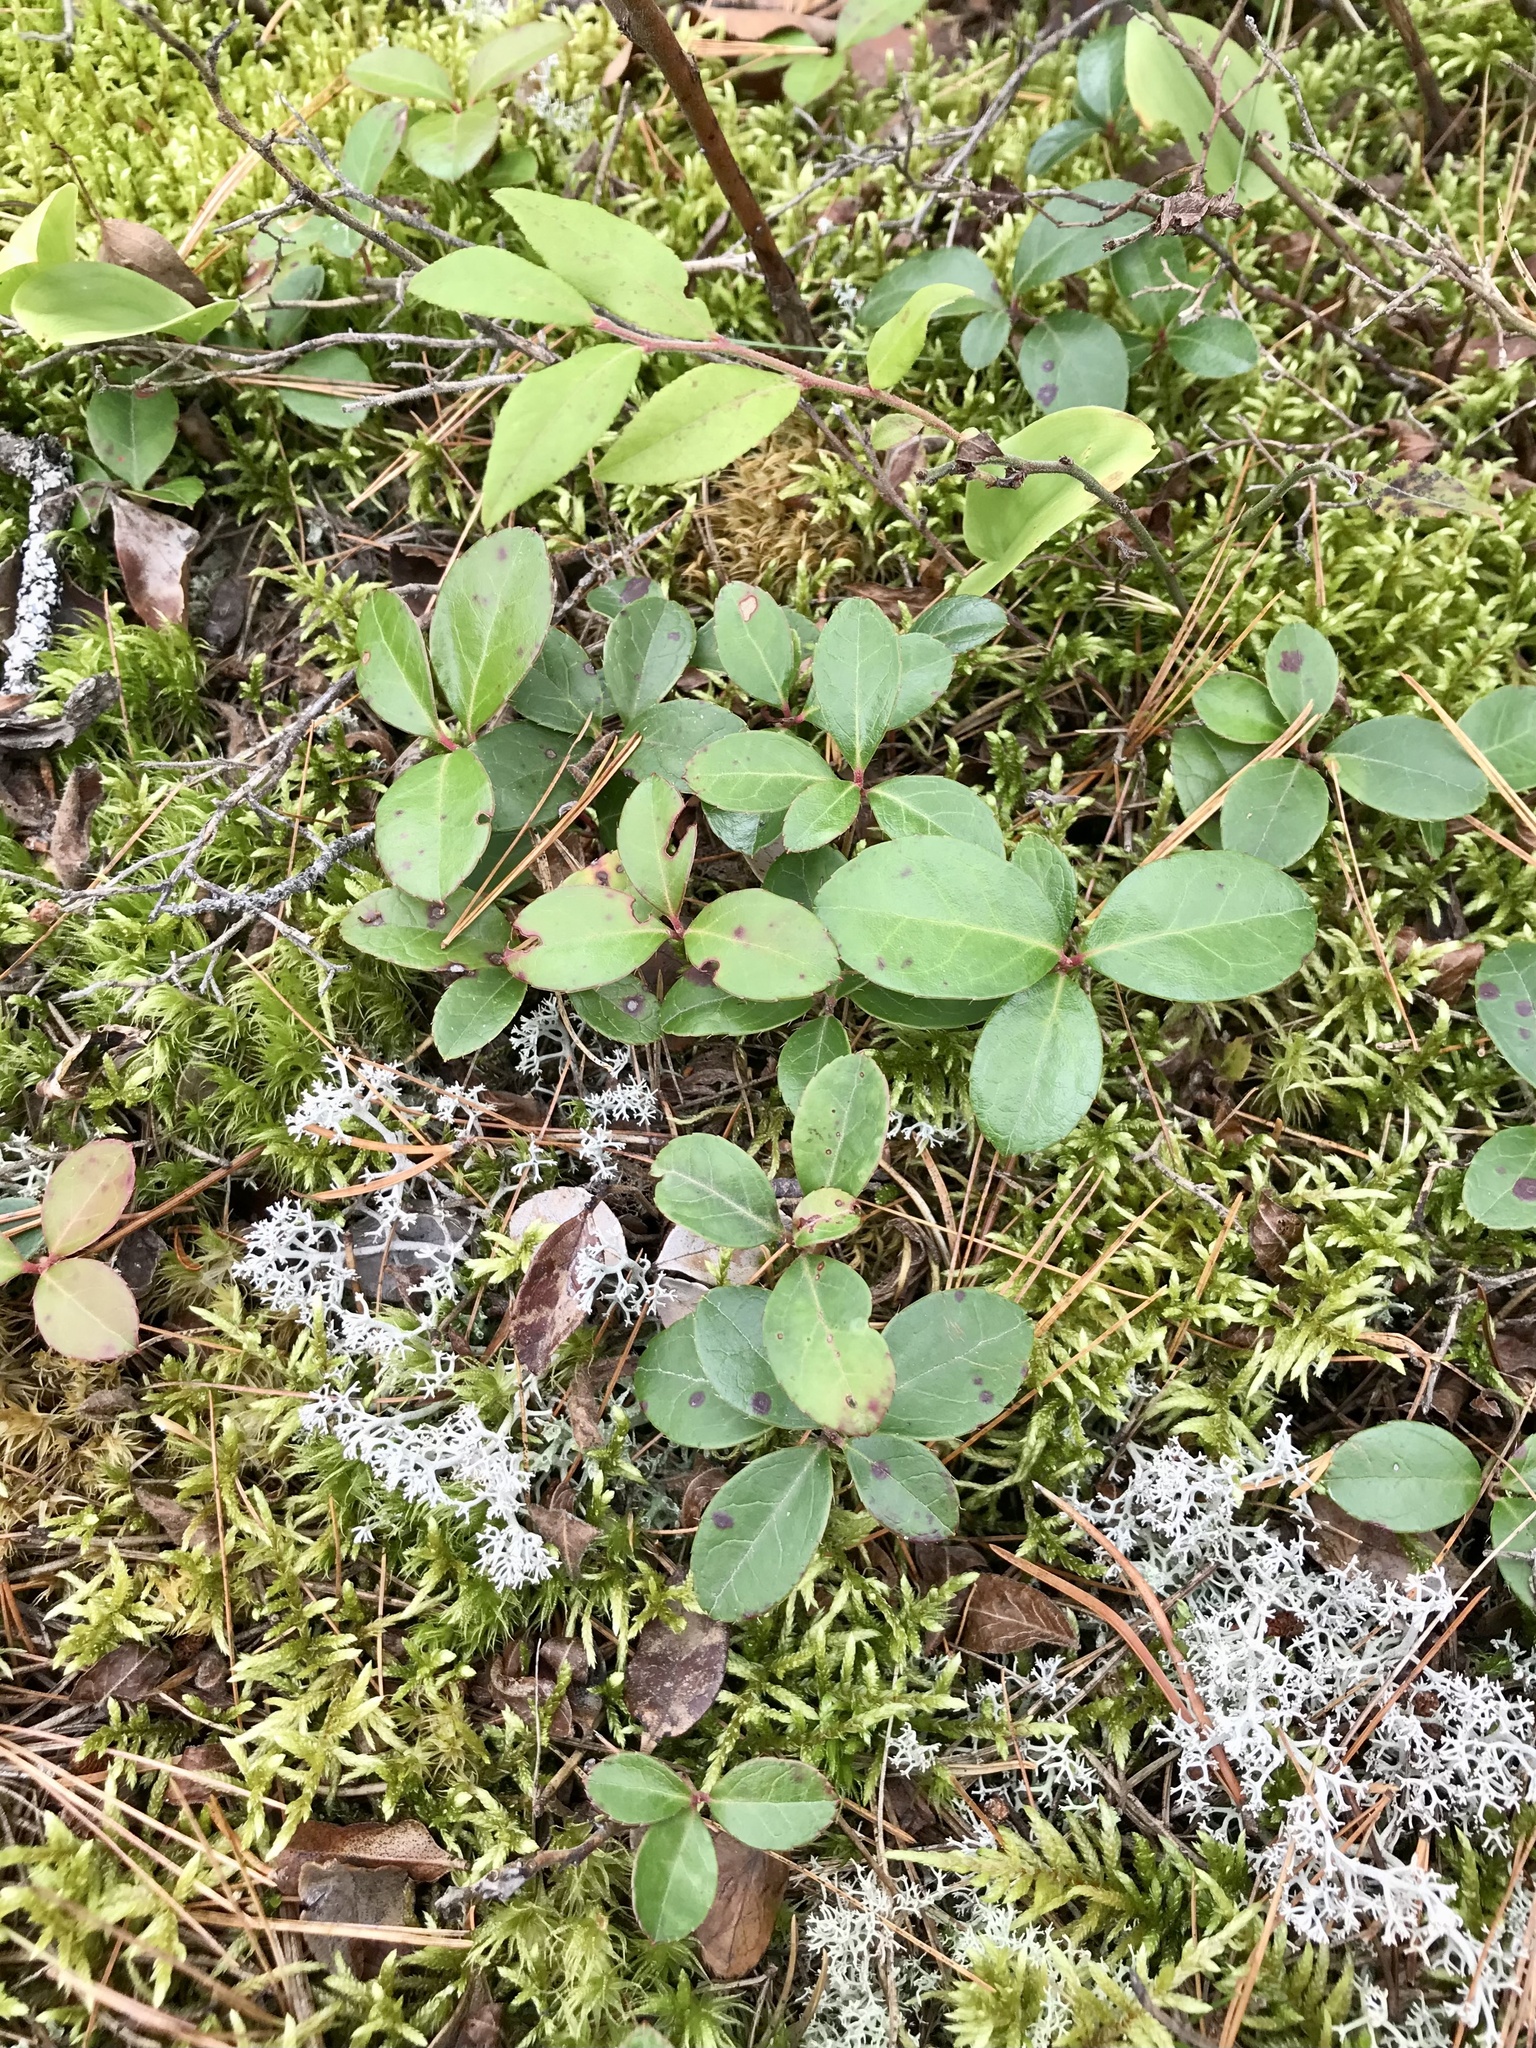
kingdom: Plantae
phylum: Tracheophyta
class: Magnoliopsida
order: Ericales
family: Ericaceae
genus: Gaultheria
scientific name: Gaultheria procumbens
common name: Checkerberry
